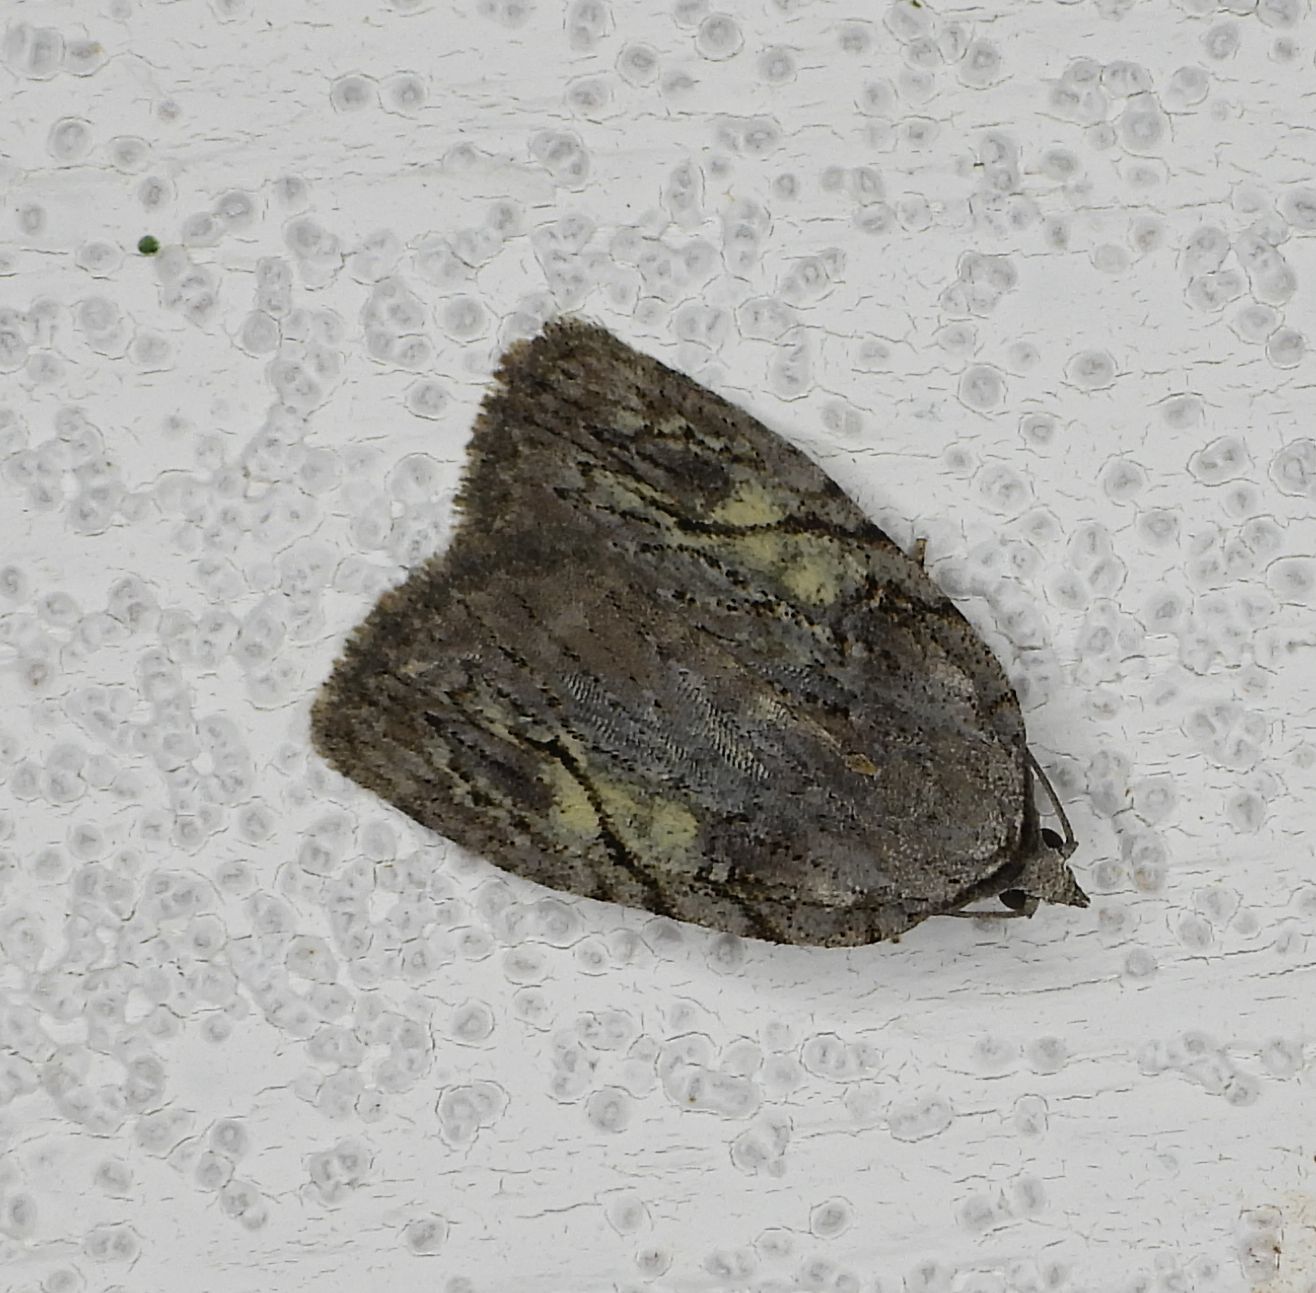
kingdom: Animalia
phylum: Arthropoda
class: Insecta
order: Lepidoptera
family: Noctuidae
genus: Balsa
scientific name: Balsa labecula
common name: White-blotched balsa moth
